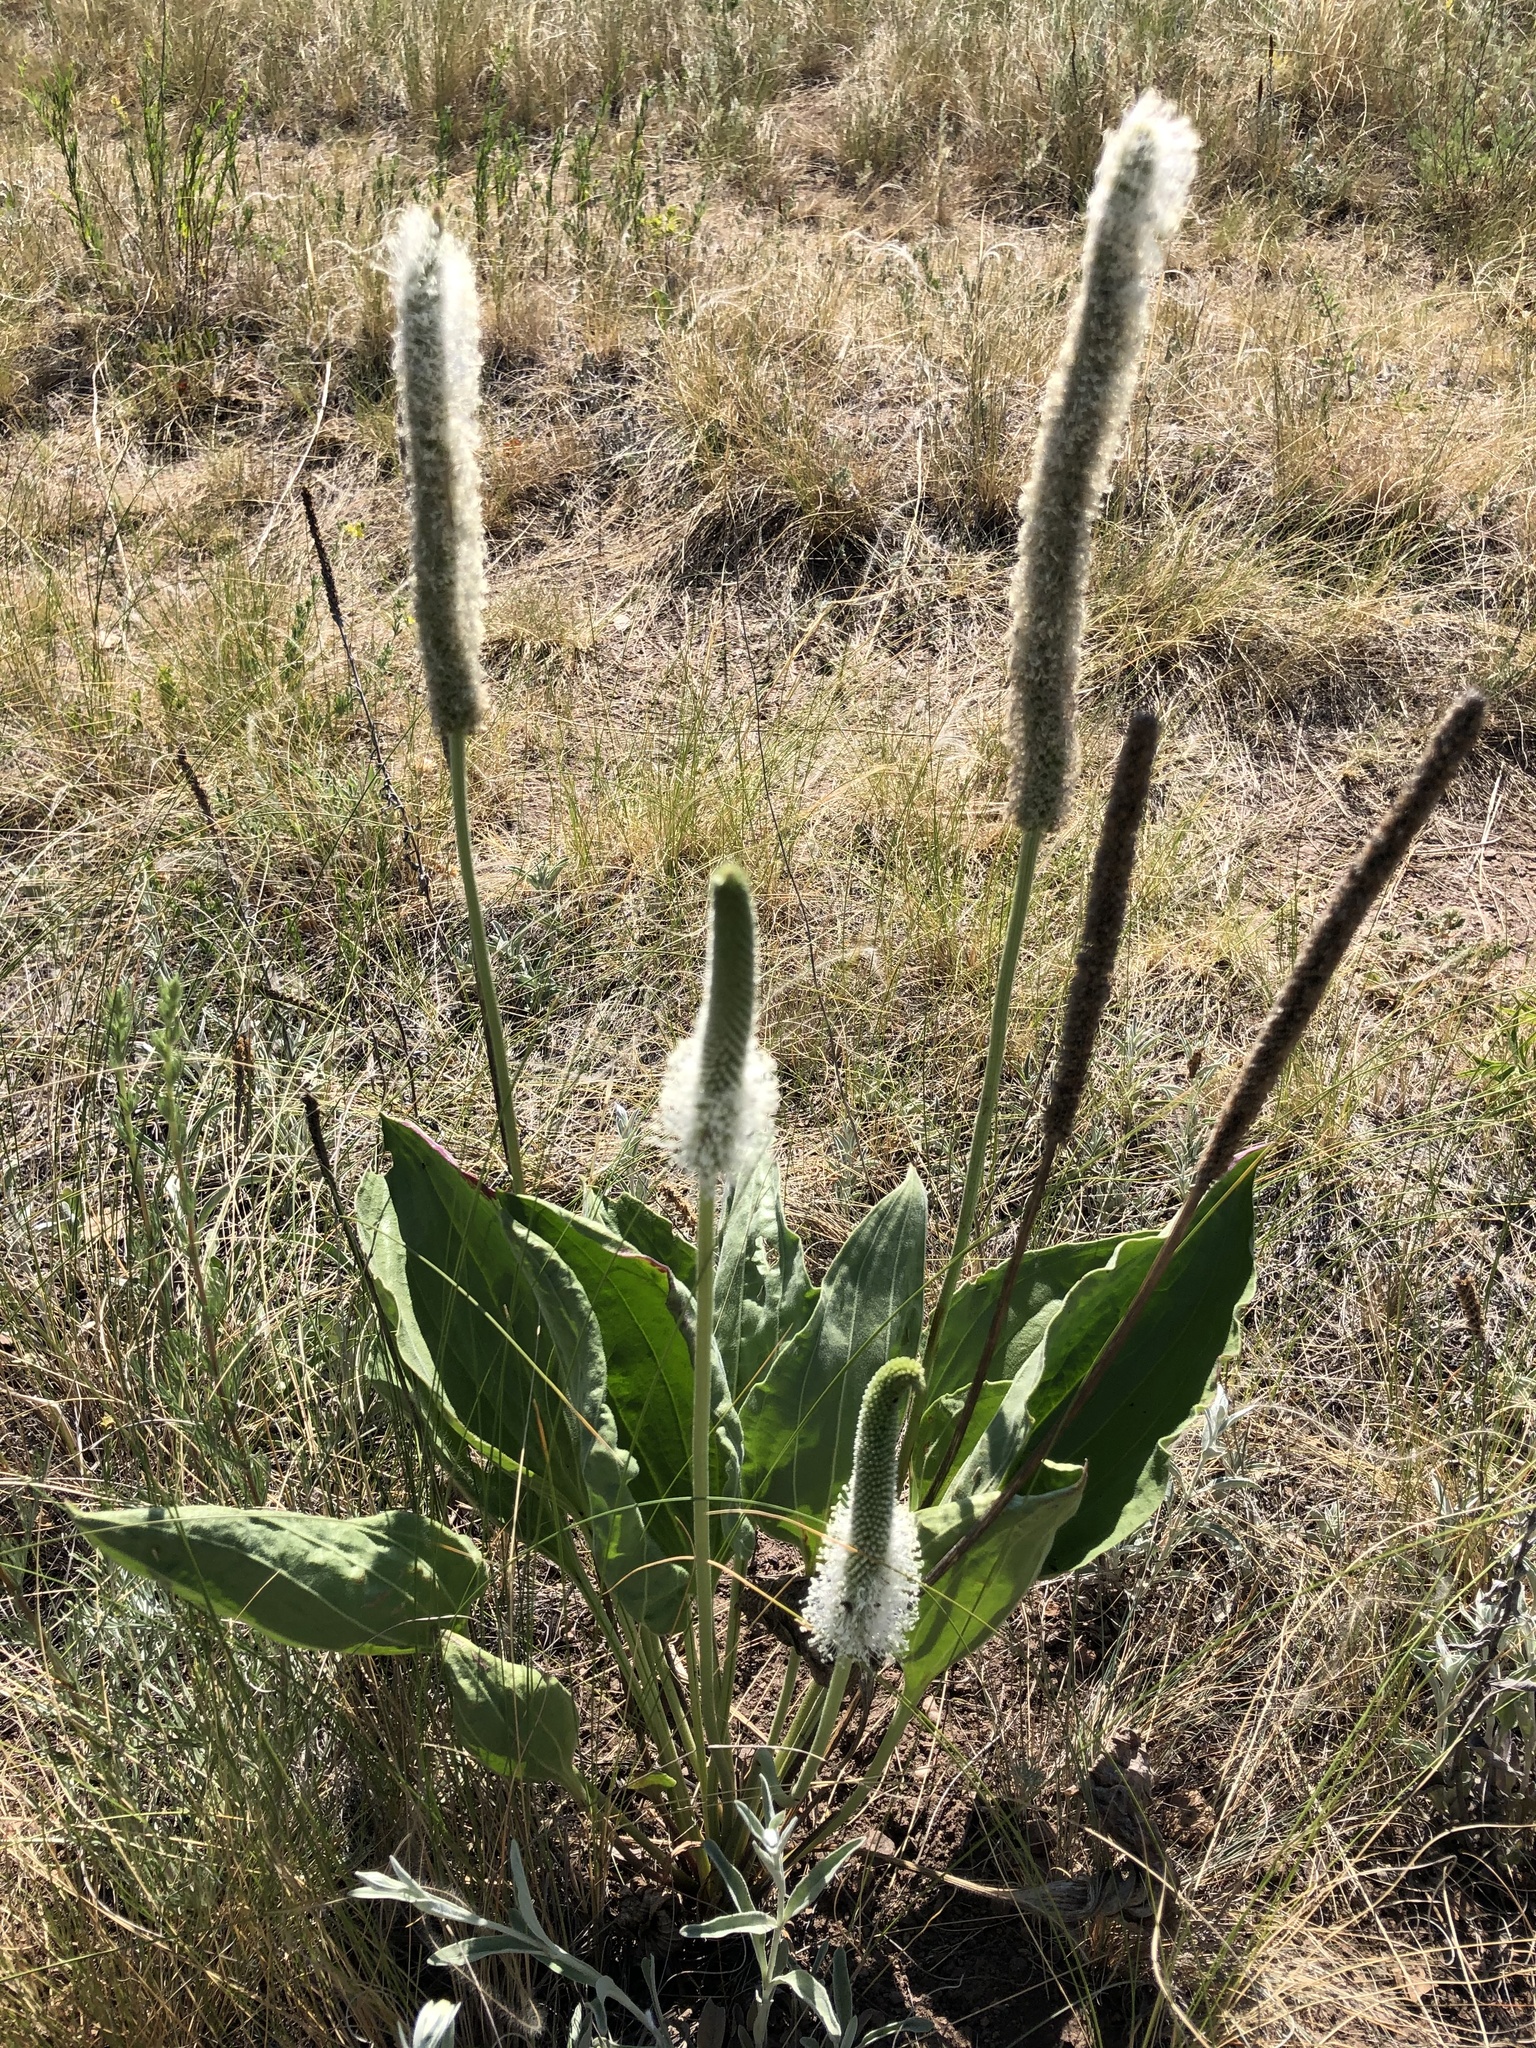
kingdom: Plantae
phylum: Tracheophyta
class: Magnoliopsida
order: Lamiales
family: Plantaginaceae
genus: Plantago
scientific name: Plantago maxima
